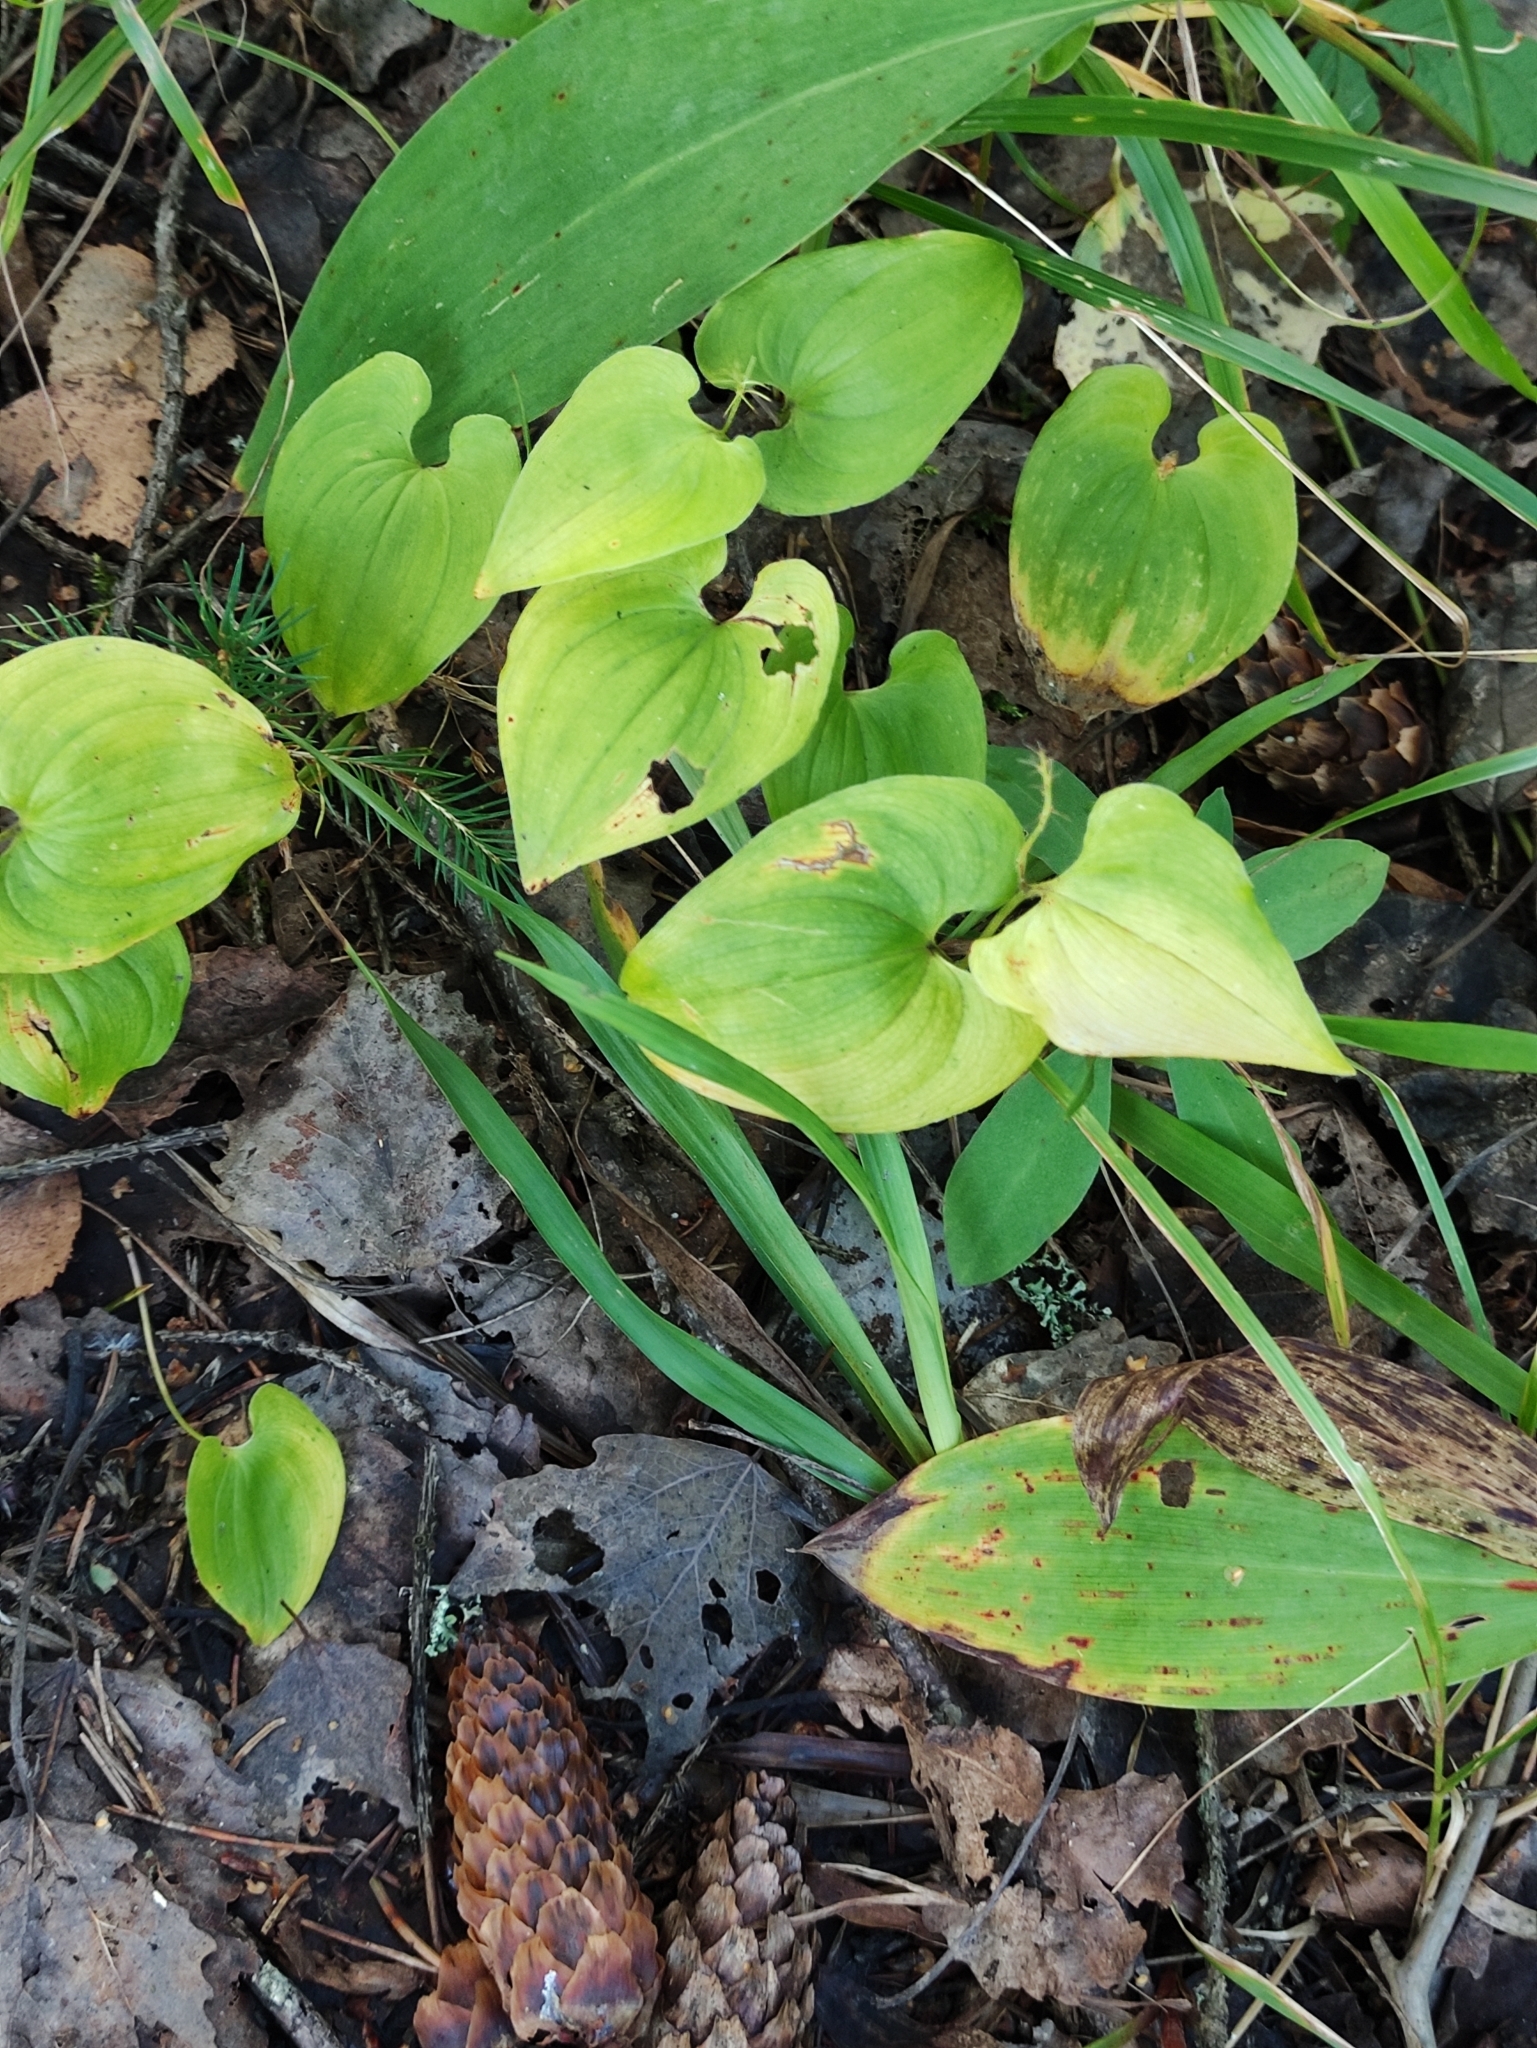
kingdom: Plantae
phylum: Tracheophyta
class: Liliopsida
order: Asparagales
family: Asparagaceae
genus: Maianthemum
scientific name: Maianthemum bifolium
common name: May lily
